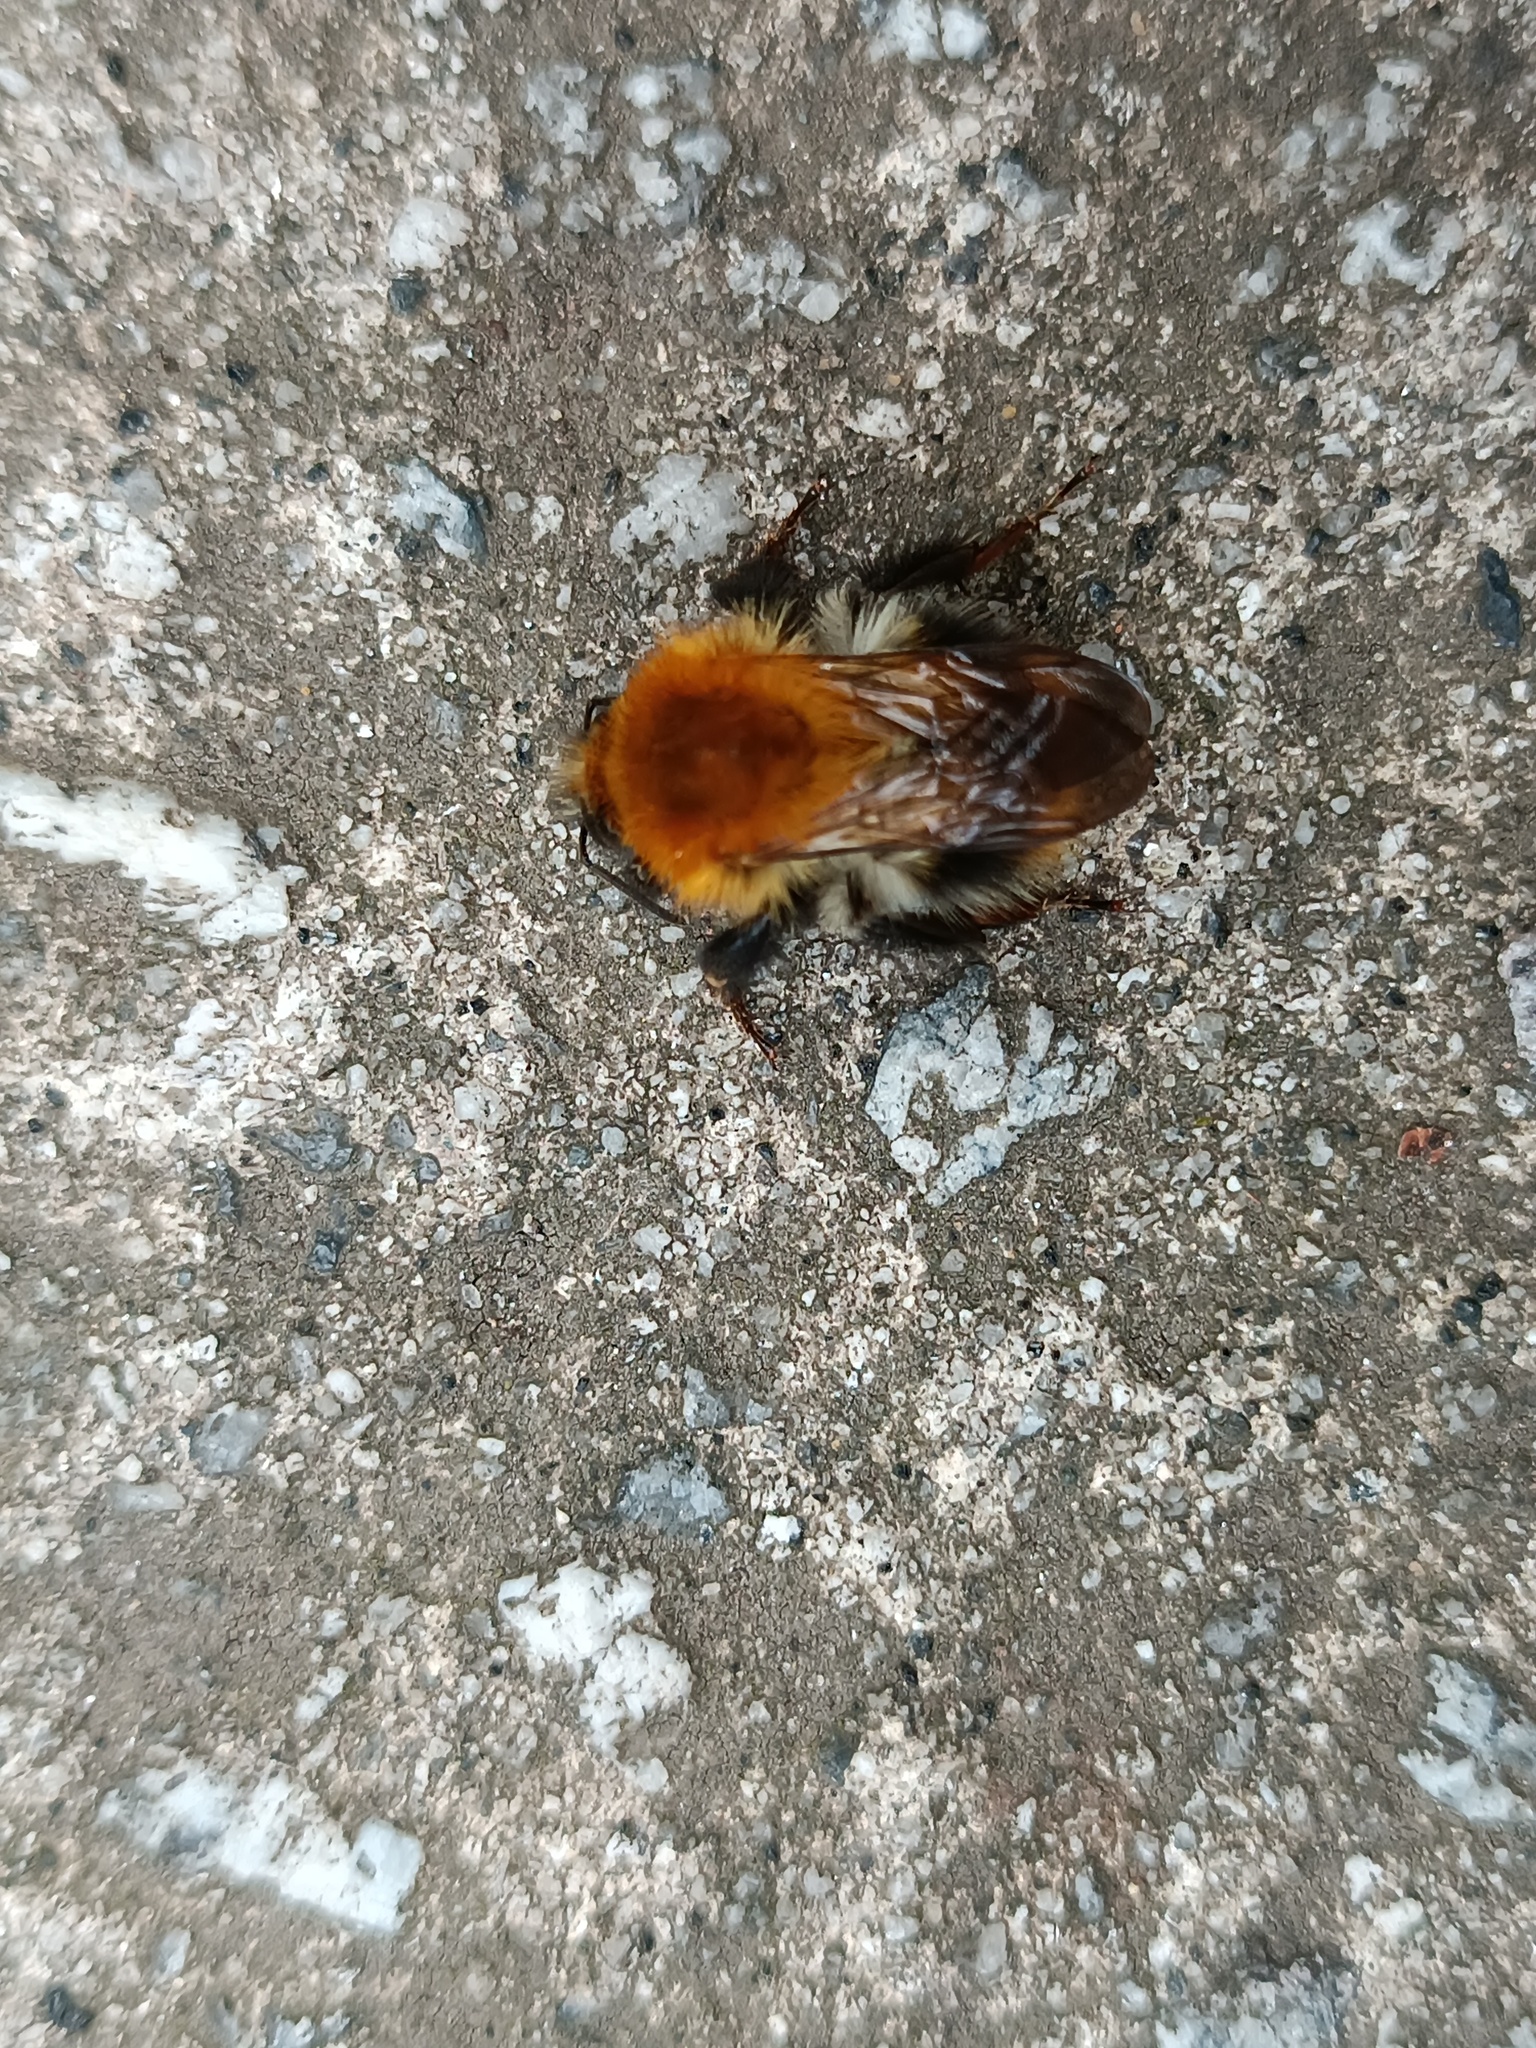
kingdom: Animalia
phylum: Arthropoda
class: Insecta
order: Hymenoptera
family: Apidae
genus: Bombus
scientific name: Bombus pascuorum
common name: Common carder bee
